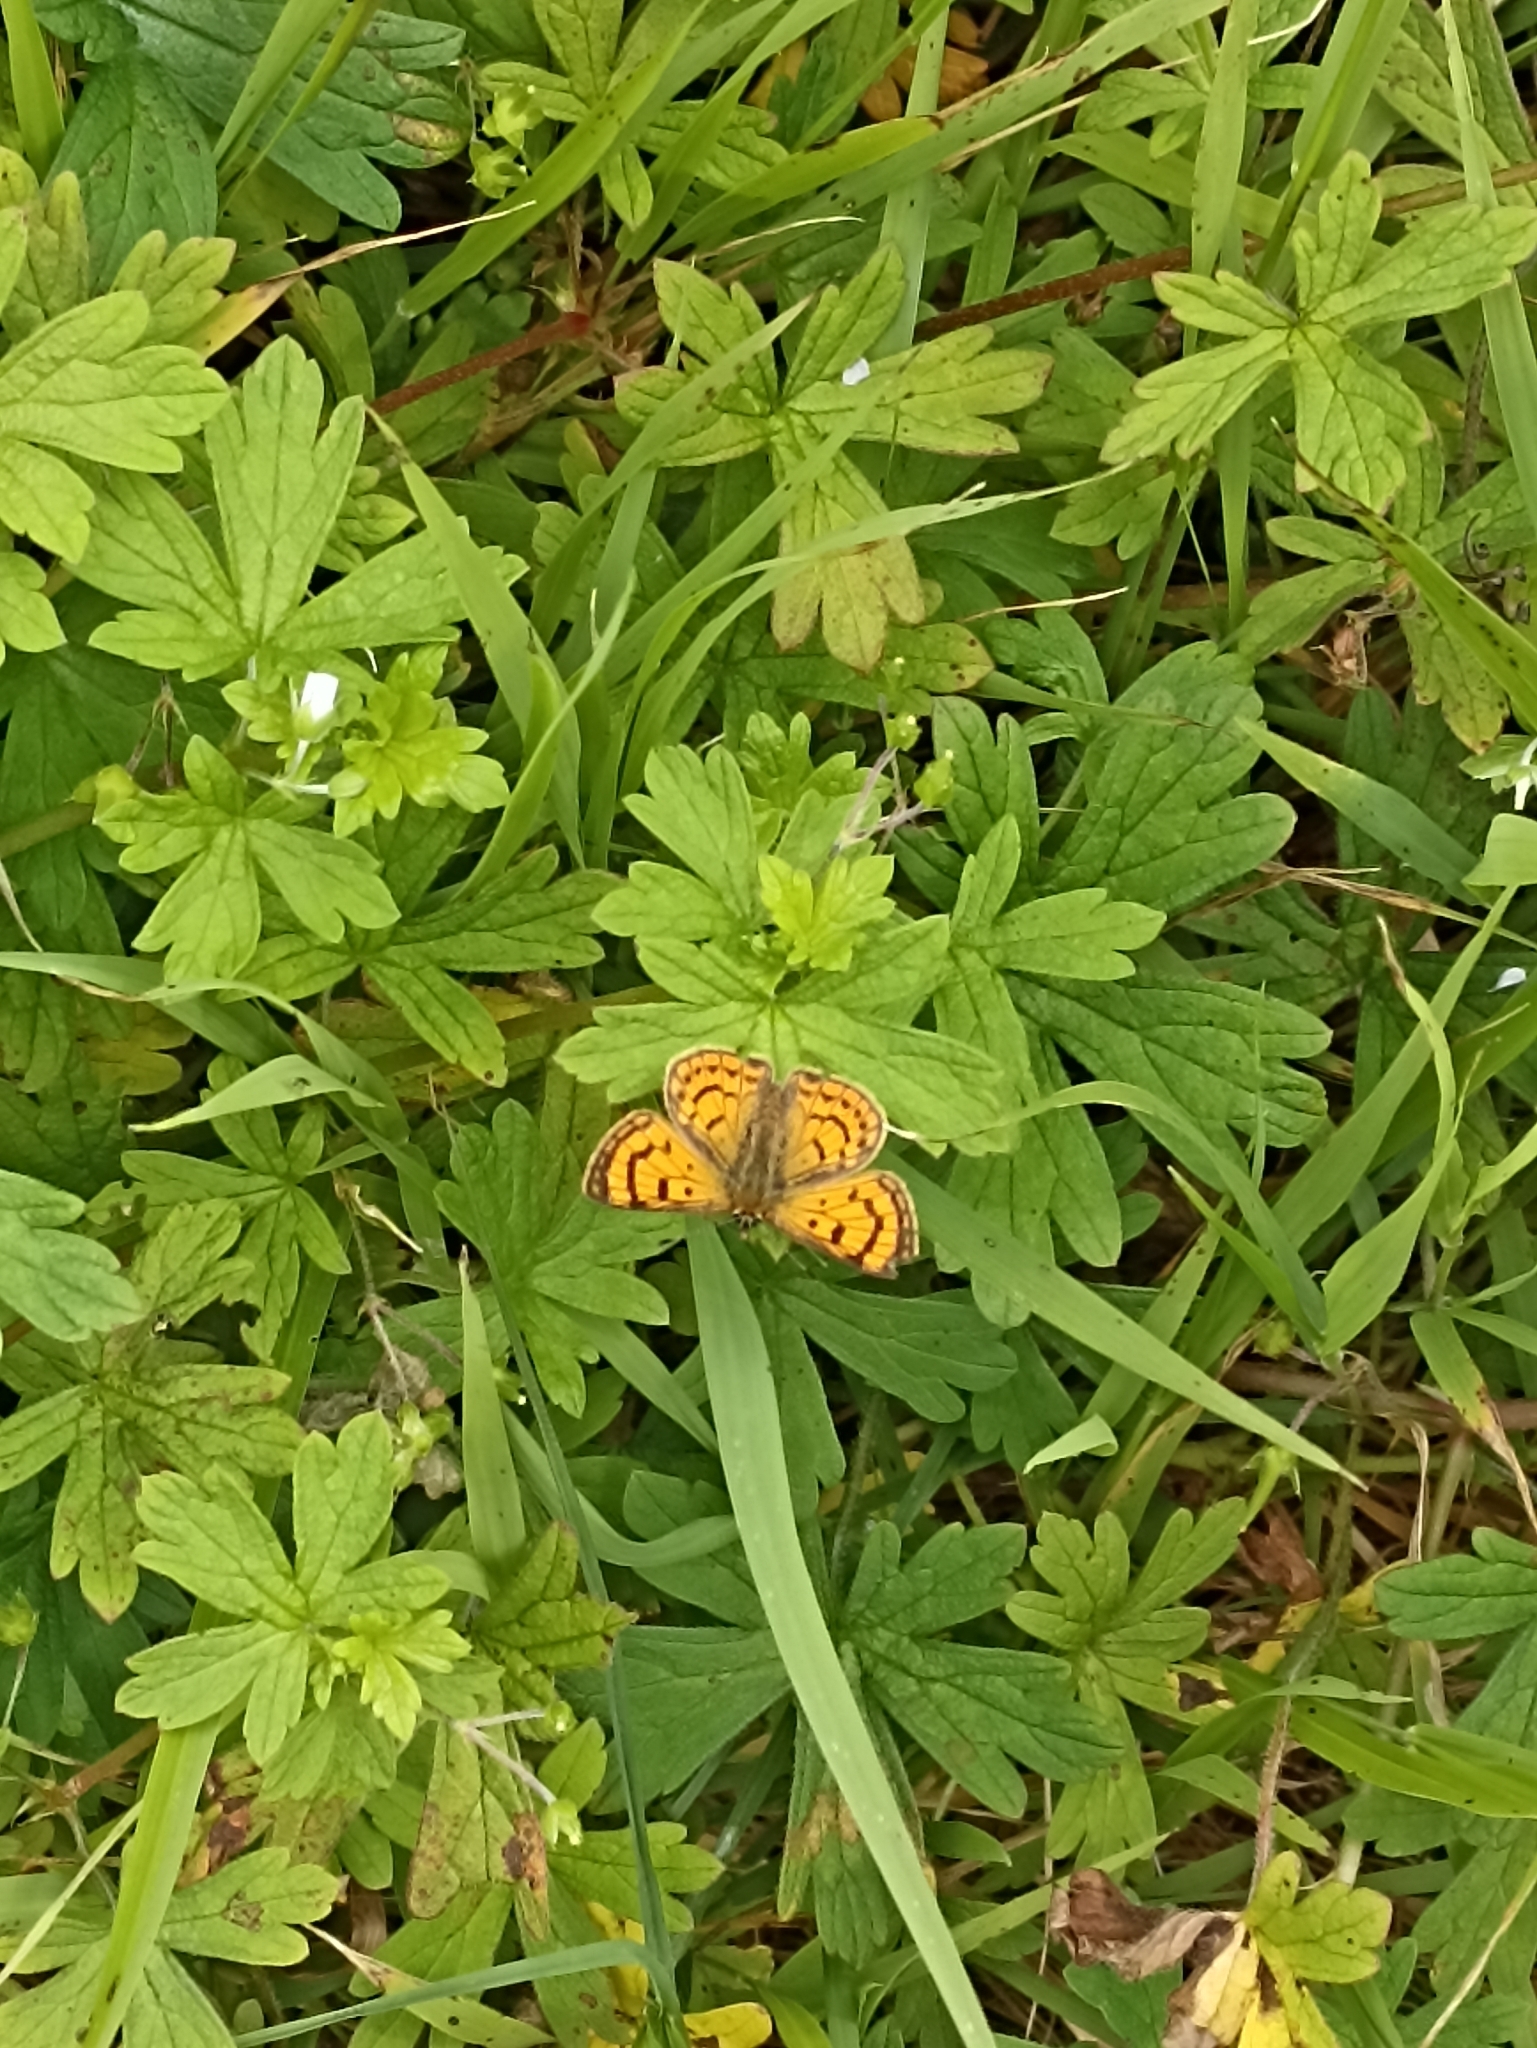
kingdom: Animalia
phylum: Arthropoda
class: Insecta
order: Lepidoptera
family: Lycaenidae
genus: Lycaena
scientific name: Lycaena salustius
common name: North island coastal copper
